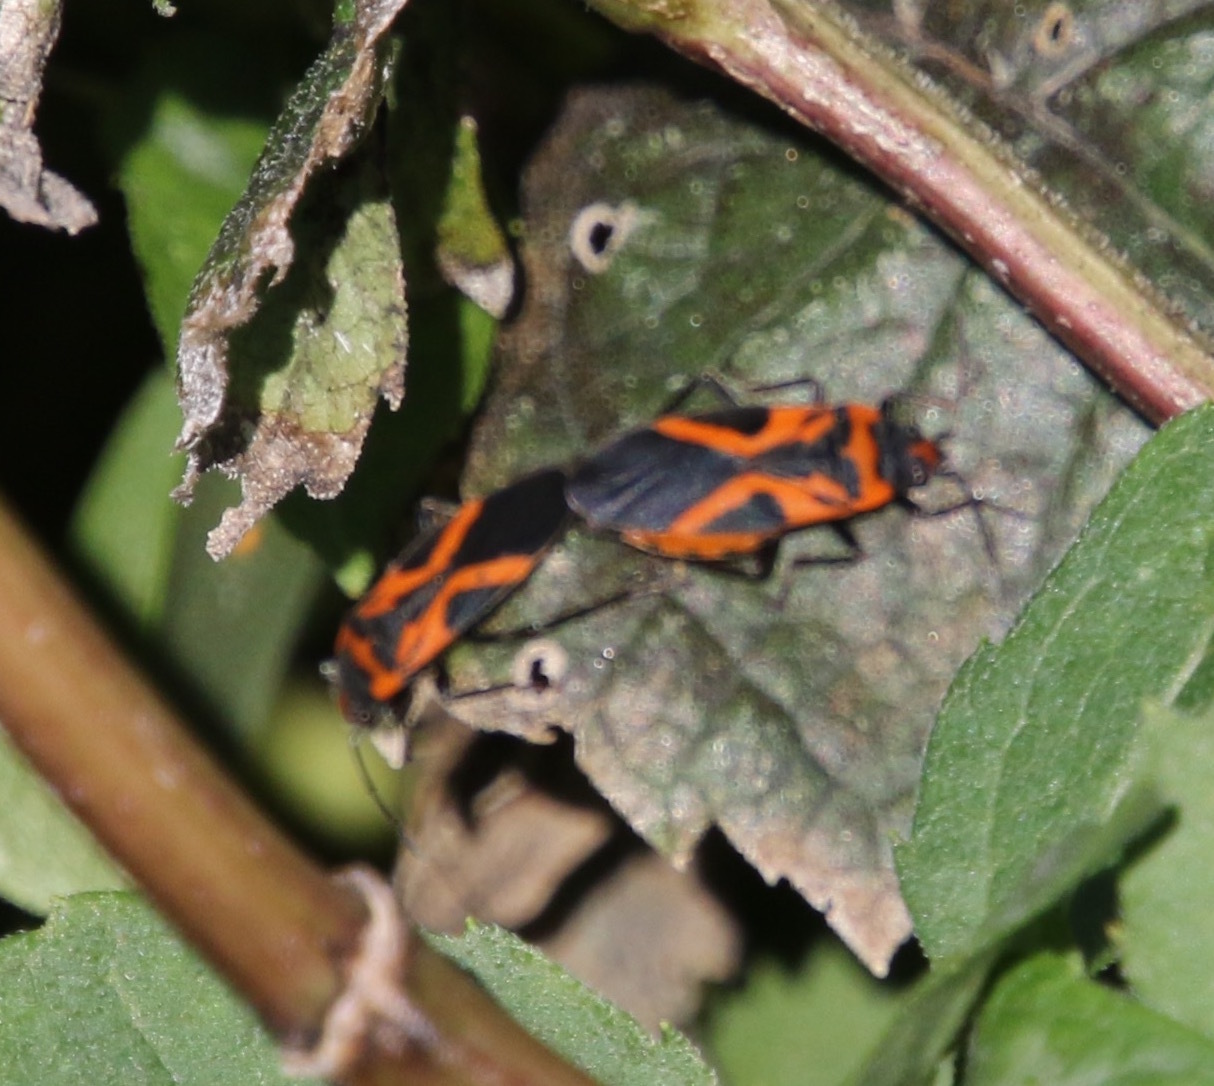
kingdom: Animalia
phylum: Arthropoda
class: Insecta
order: Hemiptera
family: Lygaeidae
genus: Lygaeus
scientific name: Lygaeus turcicus
